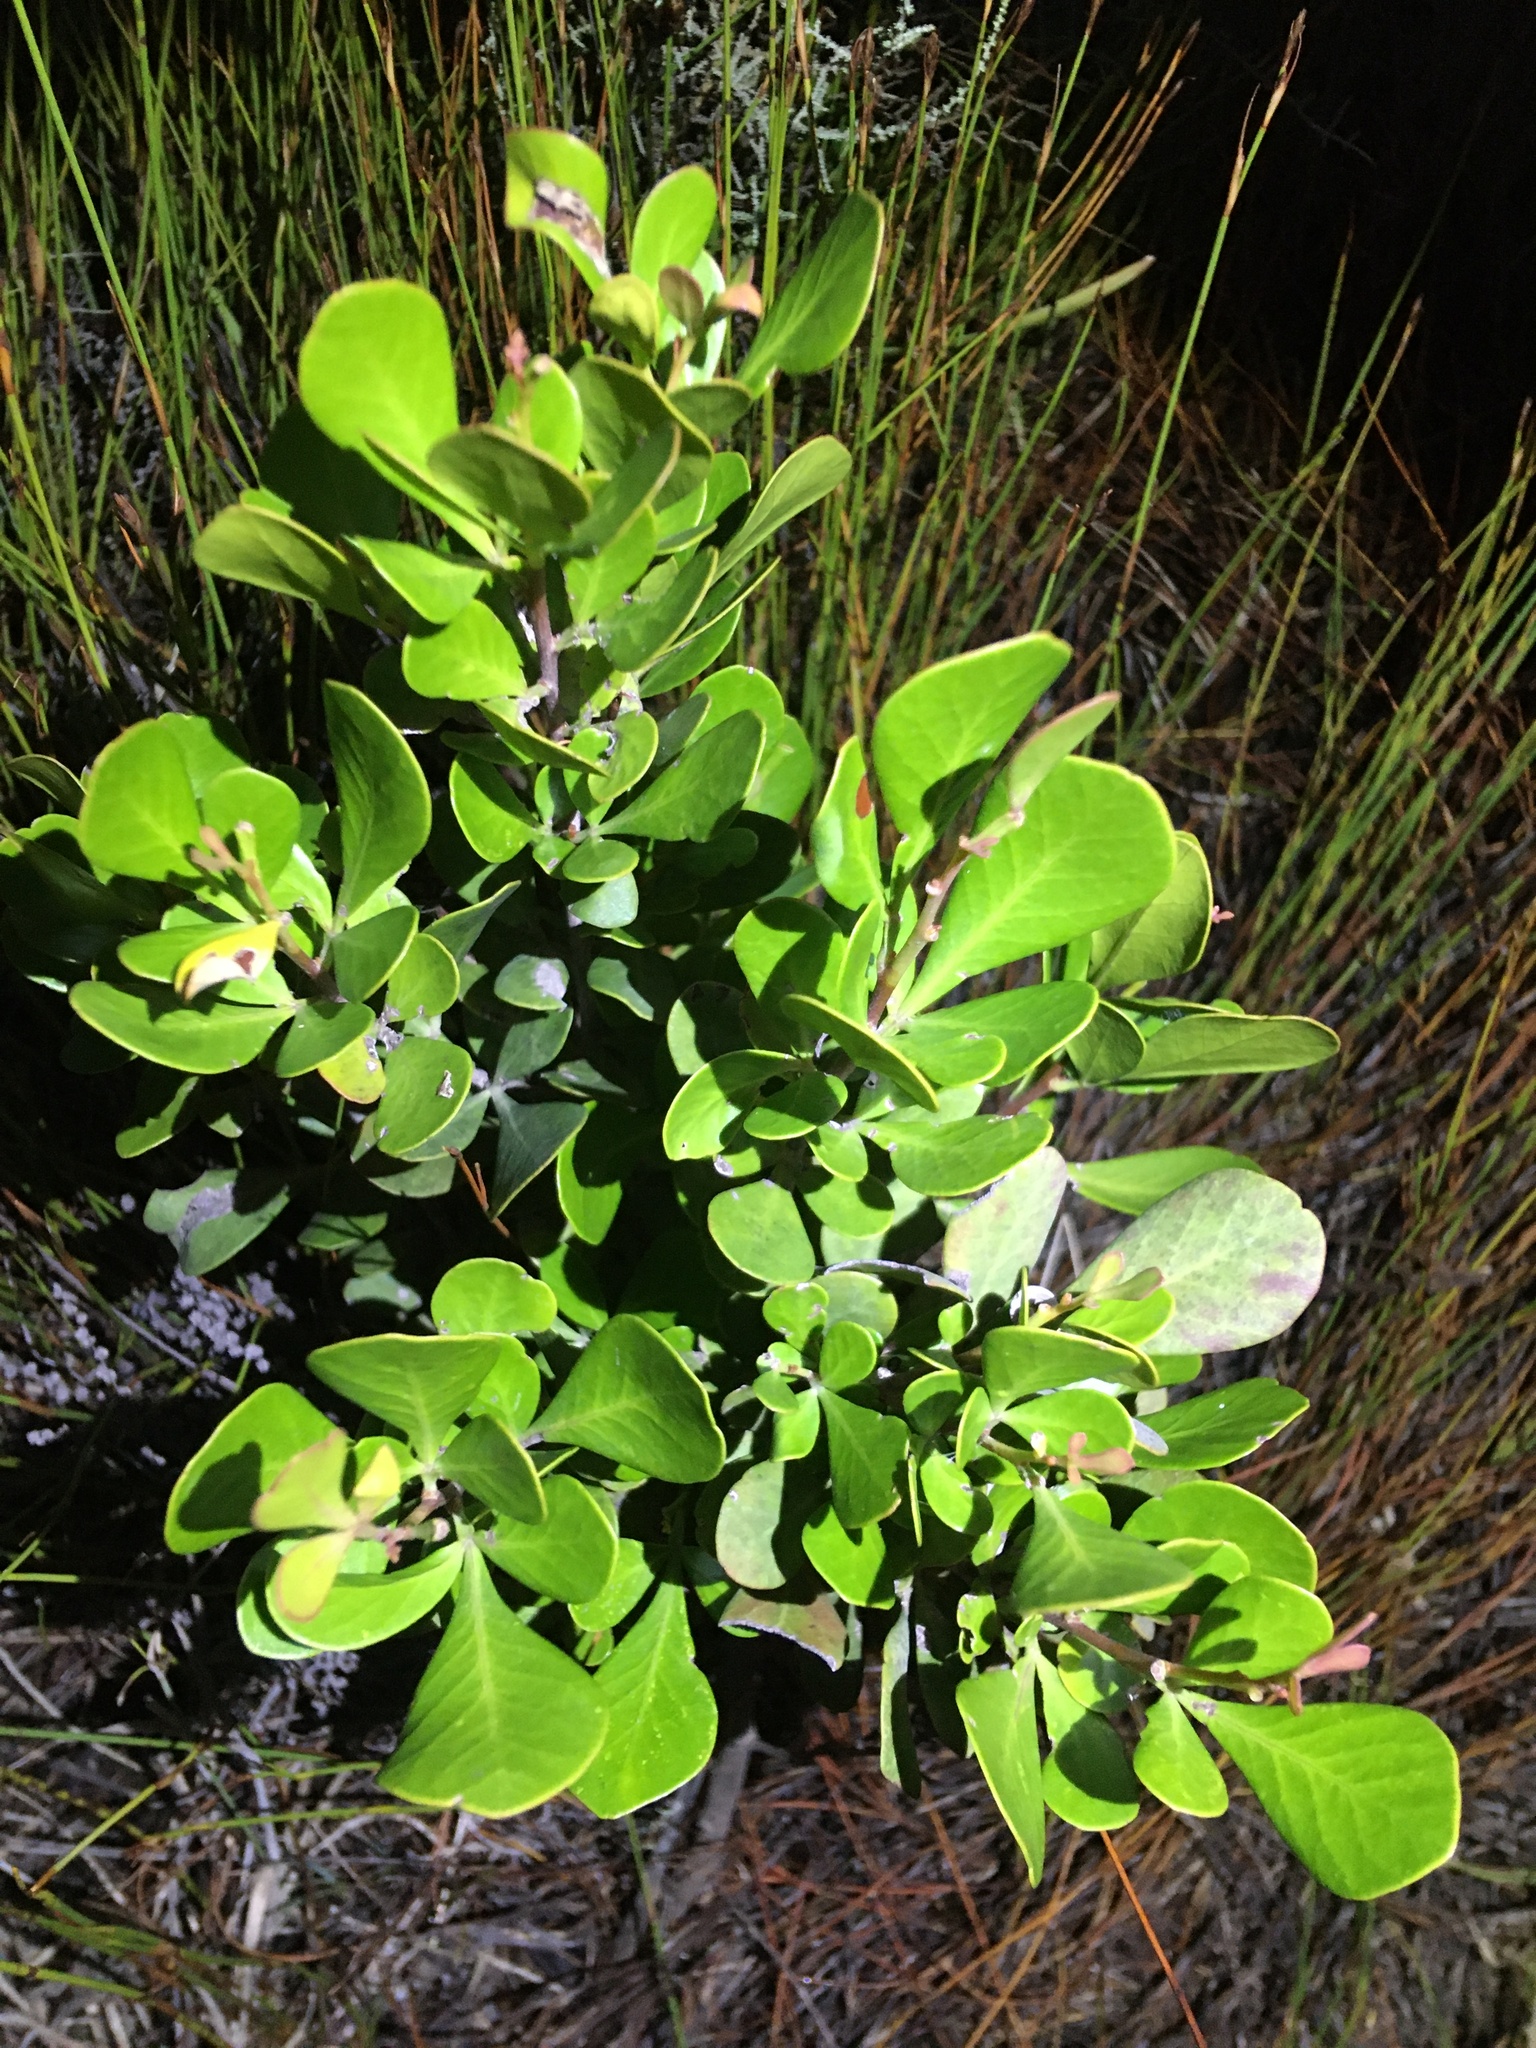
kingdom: Plantae
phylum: Tracheophyta
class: Magnoliopsida
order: Sapindales
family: Anacardiaceae
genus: Searsia
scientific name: Searsia lucida
